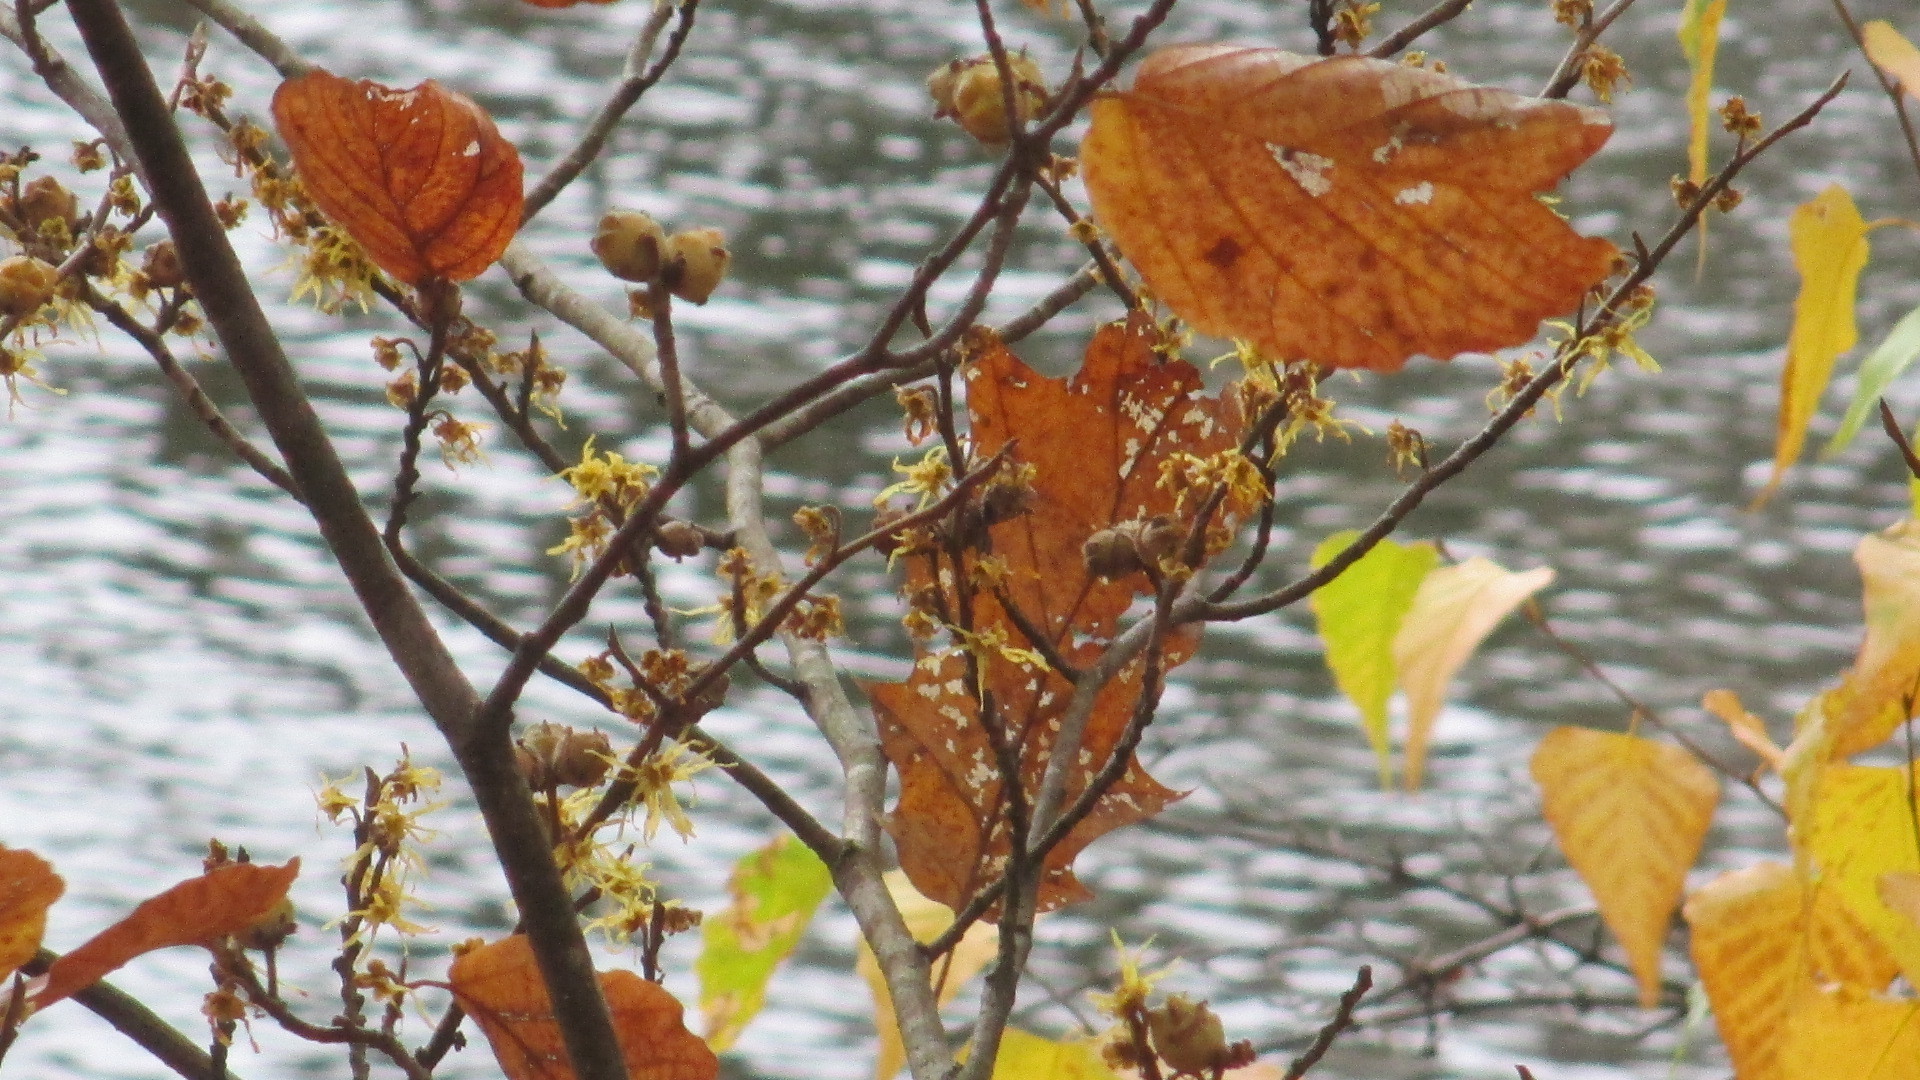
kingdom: Plantae
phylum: Tracheophyta
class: Magnoliopsida
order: Saxifragales
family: Hamamelidaceae
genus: Hamamelis
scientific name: Hamamelis virginiana
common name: Witch-hazel
